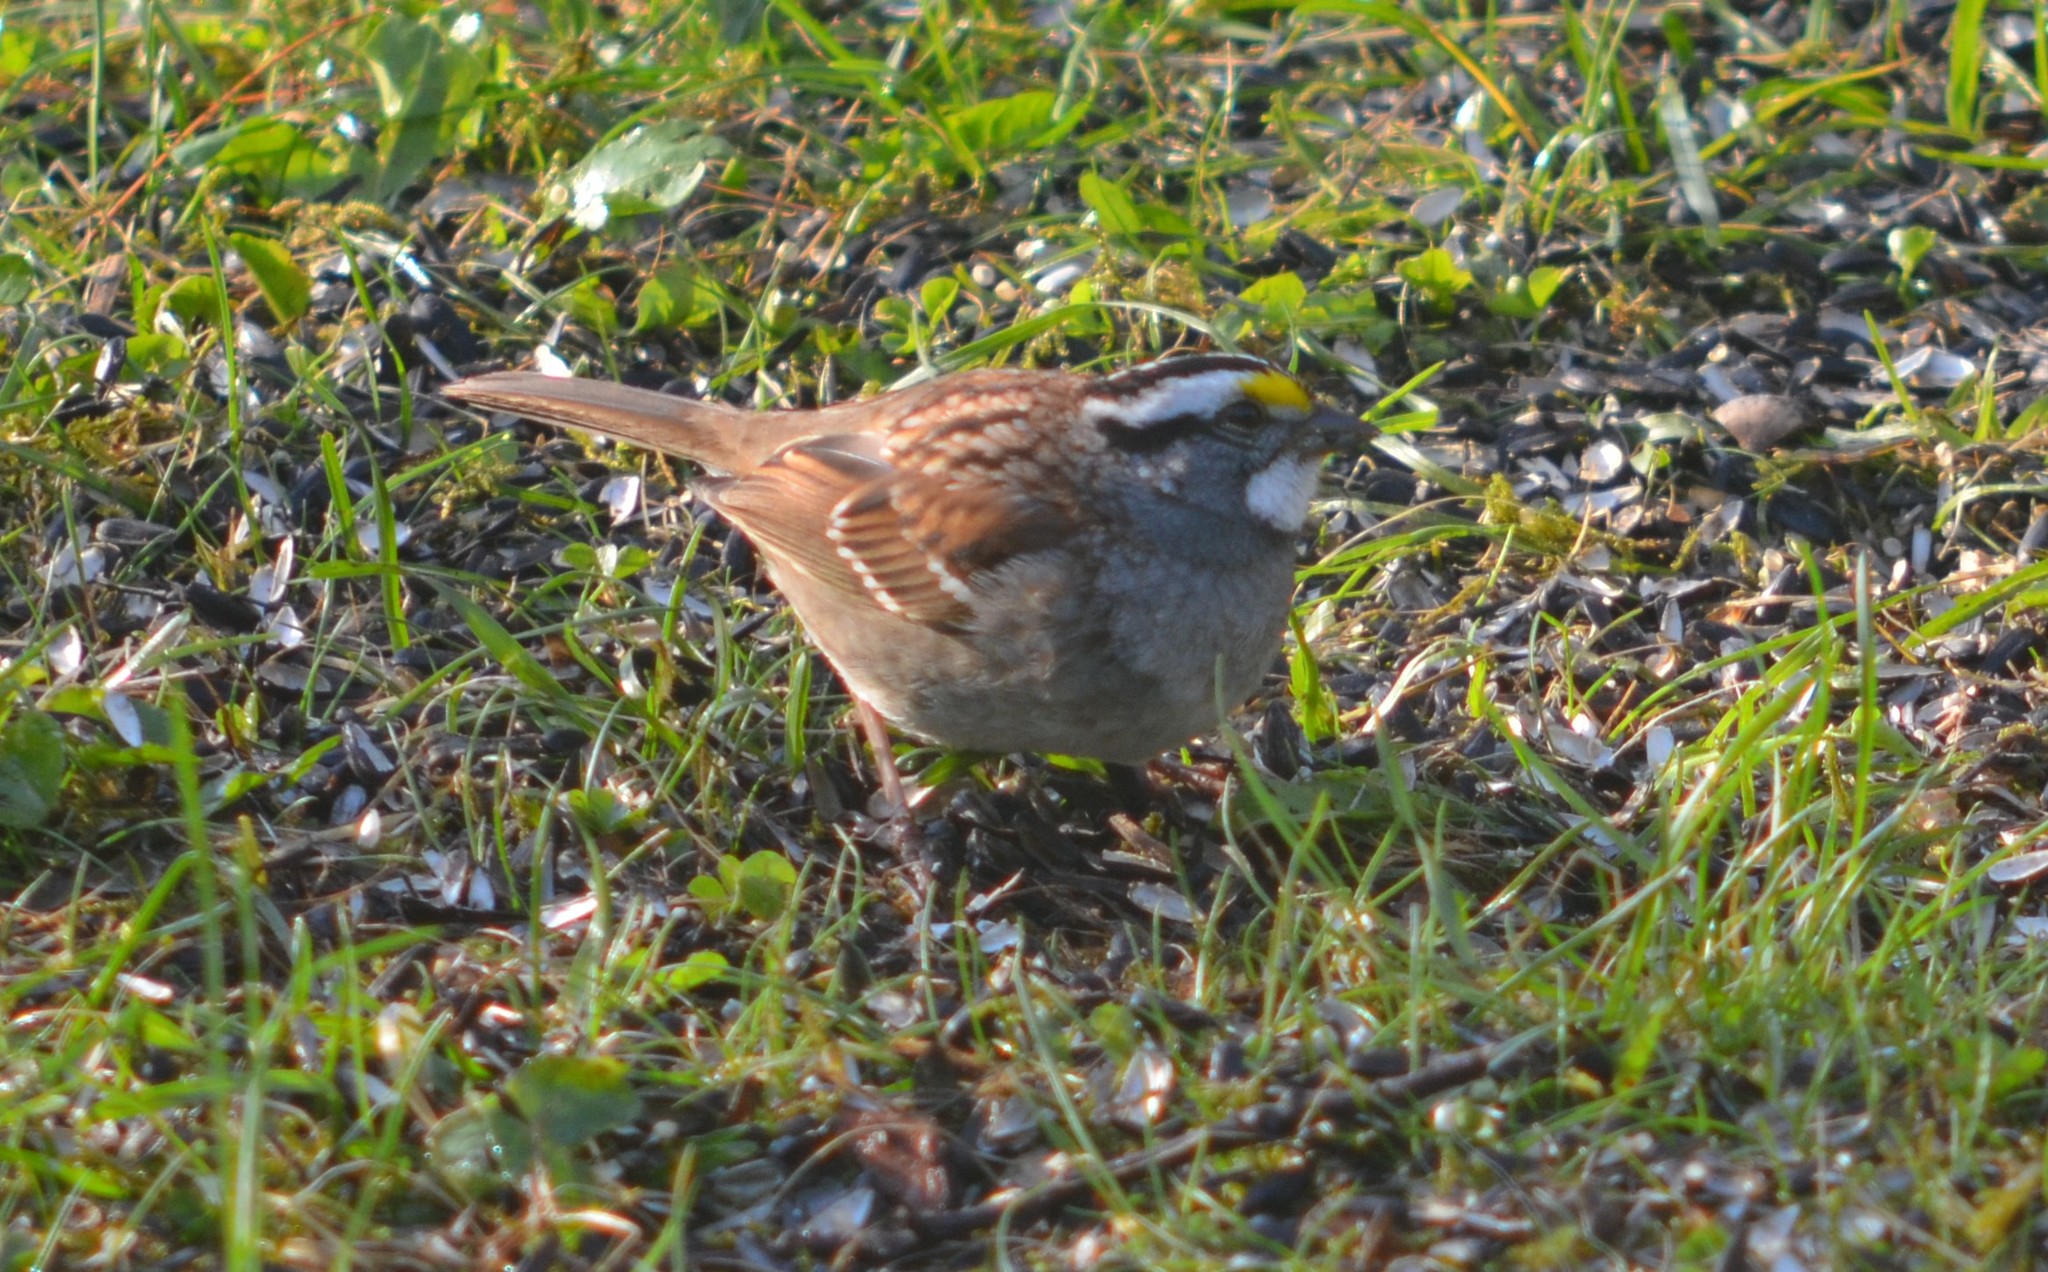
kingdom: Animalia
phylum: Chordata
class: Aves
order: Passeriformes
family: Passerellidae
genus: Zonotrichia
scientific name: Zonotrichia albicollis
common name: White-throated sparrow
